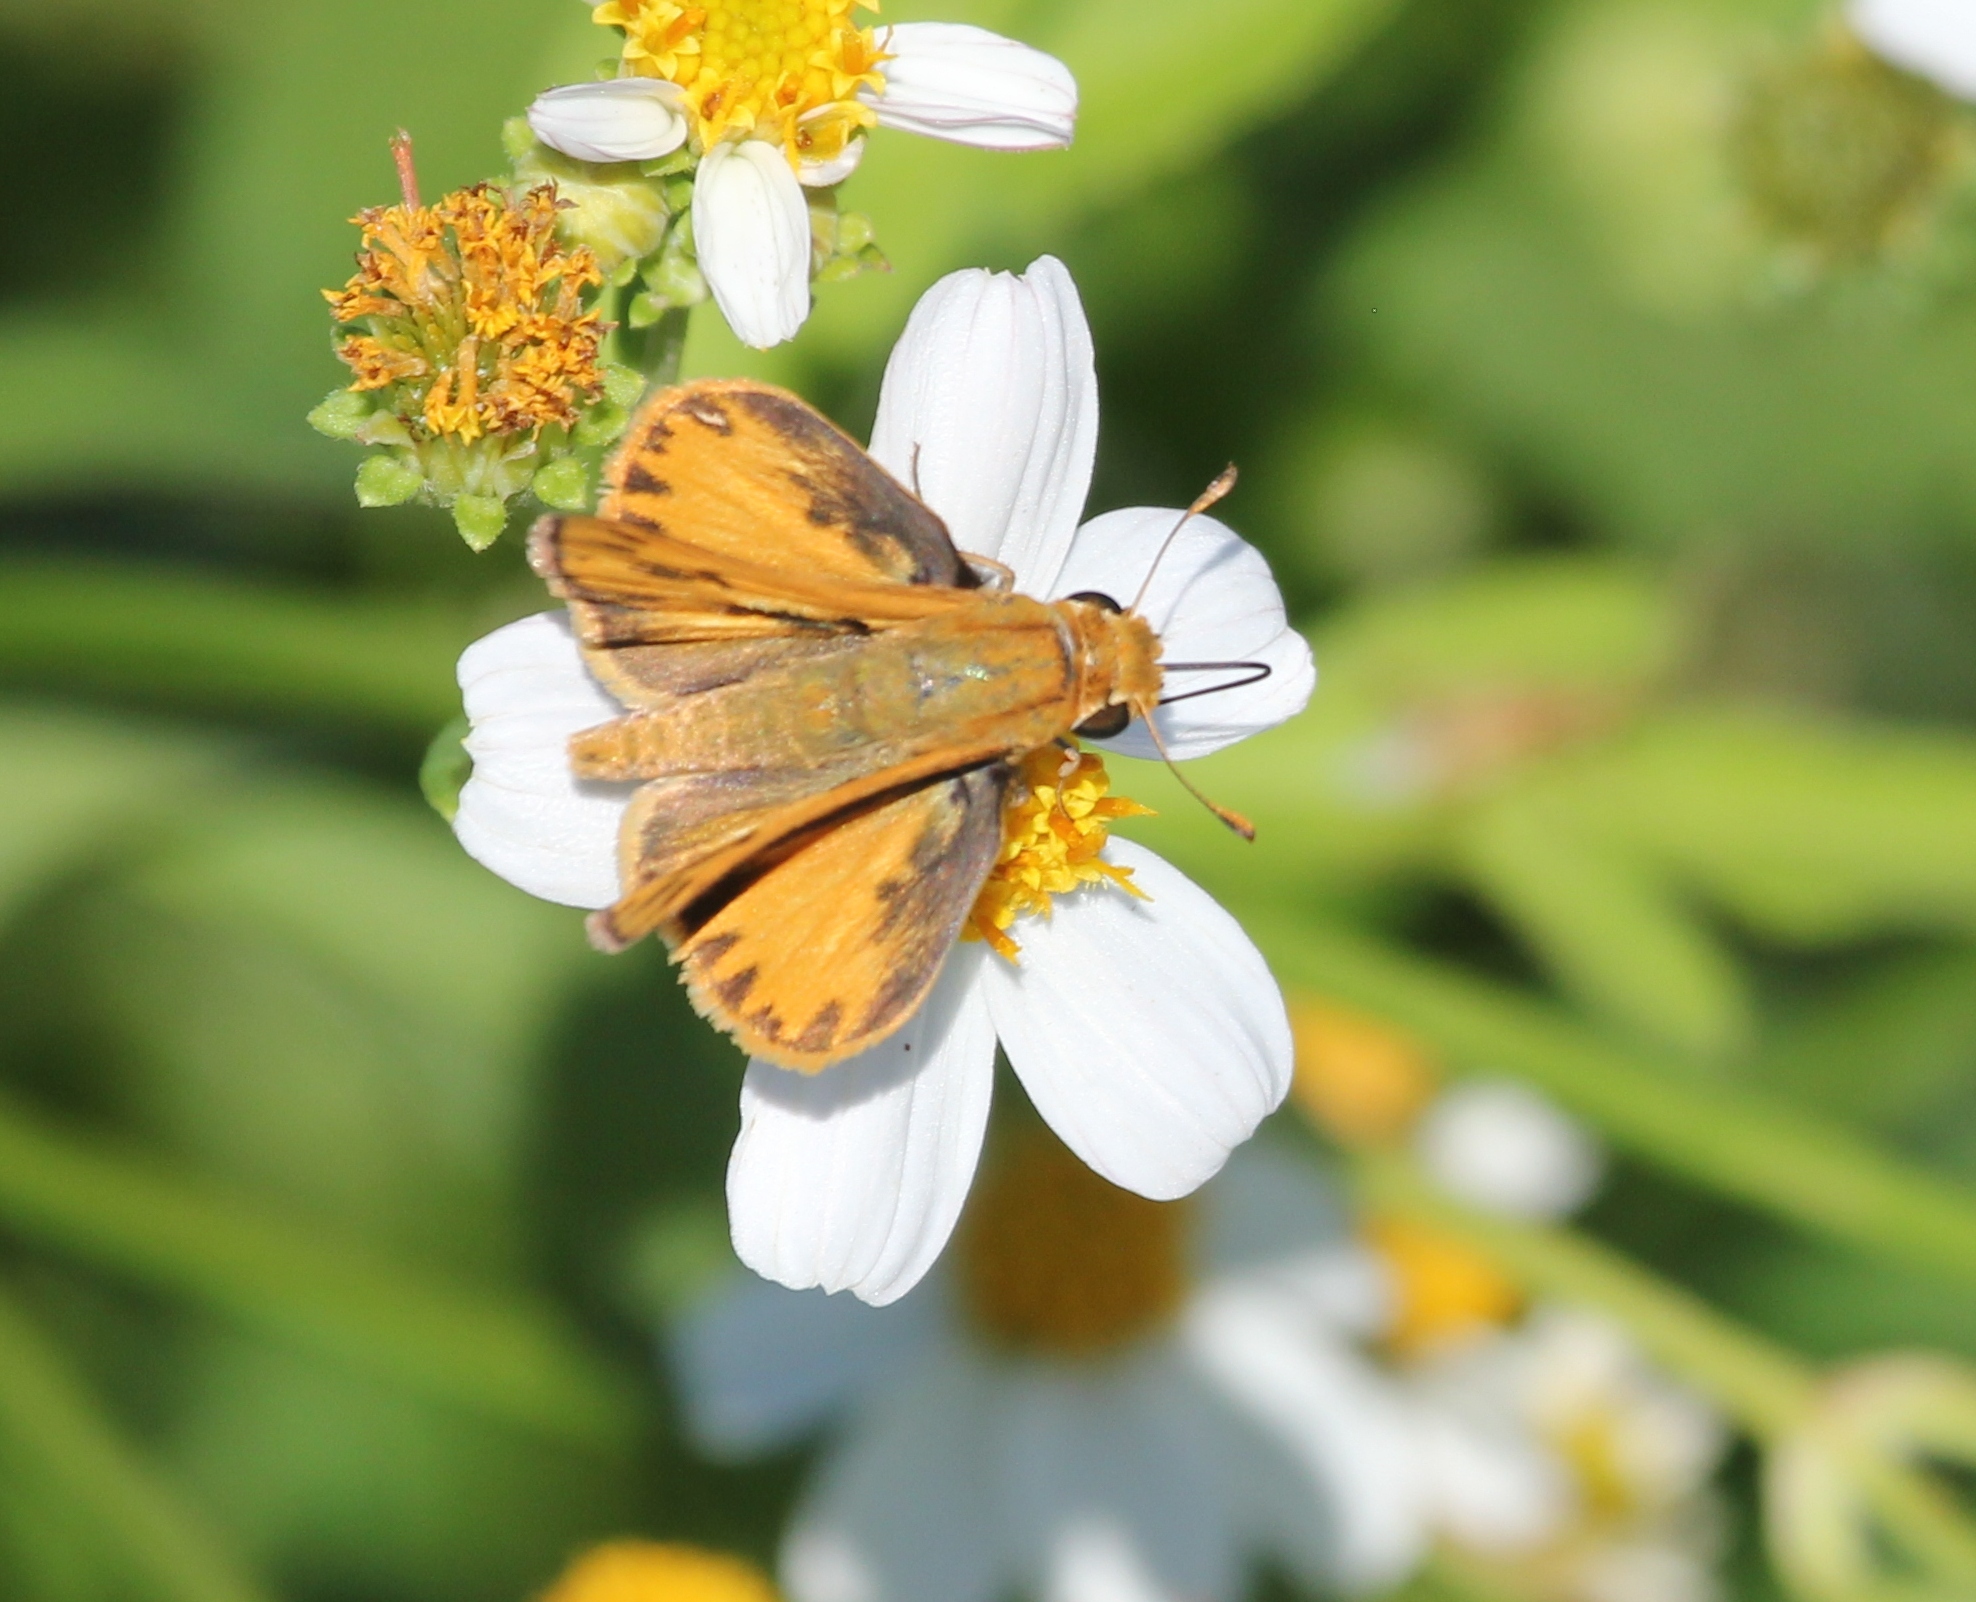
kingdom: Animalia
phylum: Arthropoda
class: Insecta
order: Lepidoptera
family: Hesperiidae
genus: Hylephila
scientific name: Hylephila phyleus
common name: Fiery skipper
